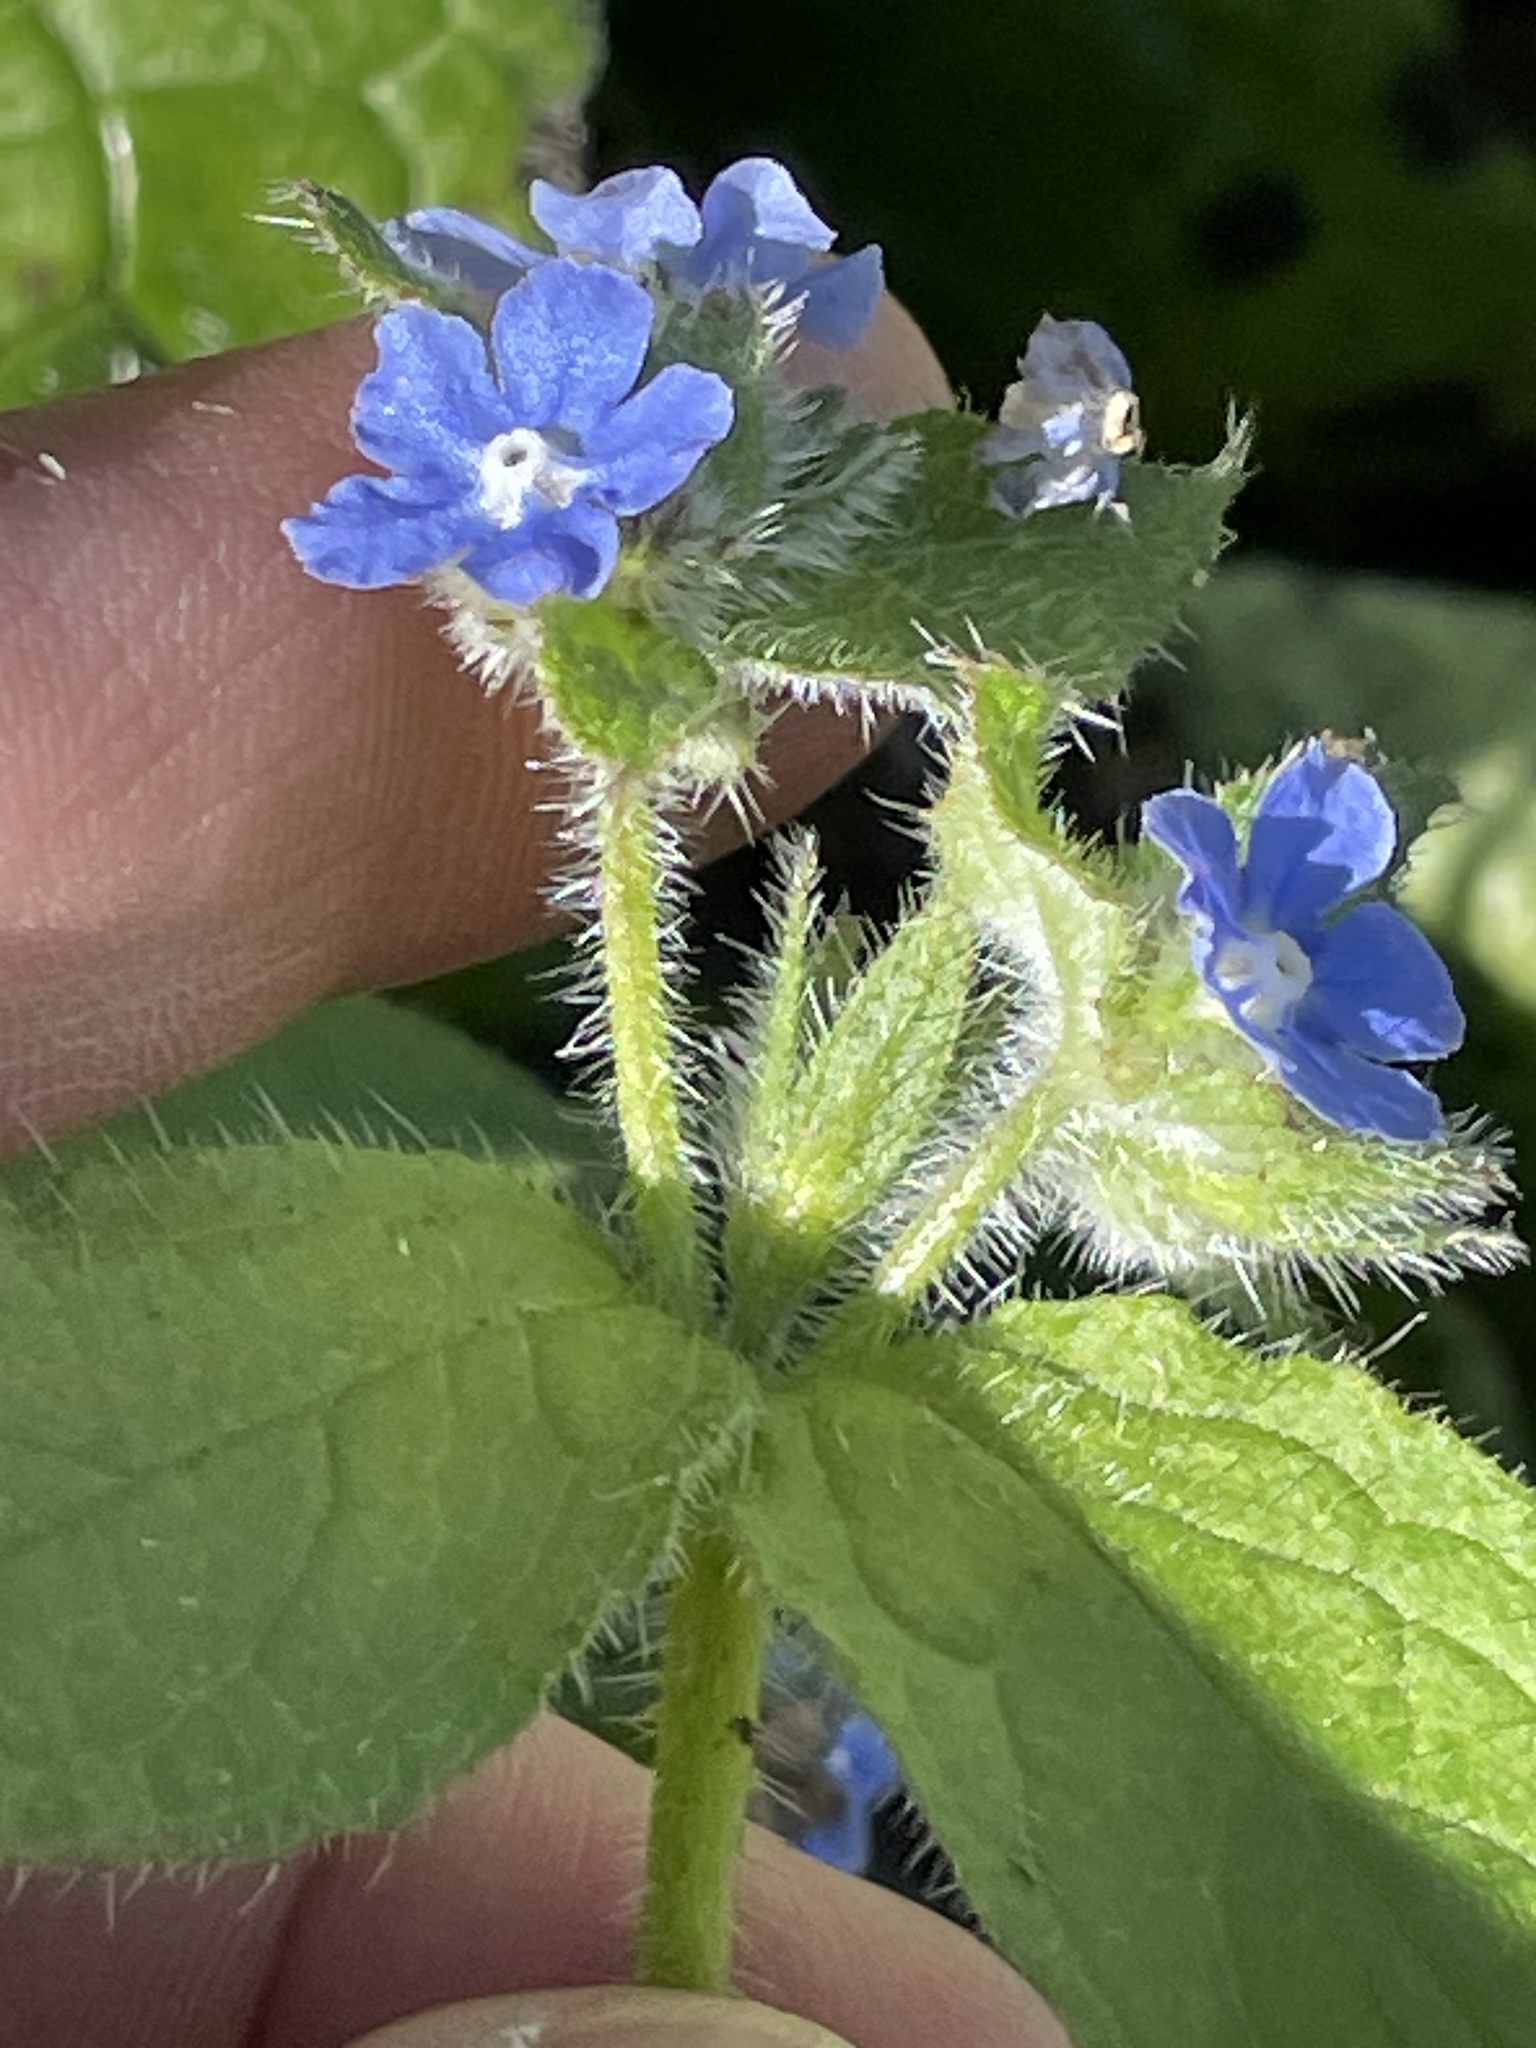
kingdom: Plantae
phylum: Tracheophyta
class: Magnoliopsida
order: Boraginales
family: Boraginaceae
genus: Pentaglottis
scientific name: Pentaglottis sempervirens
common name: Green alkanet
